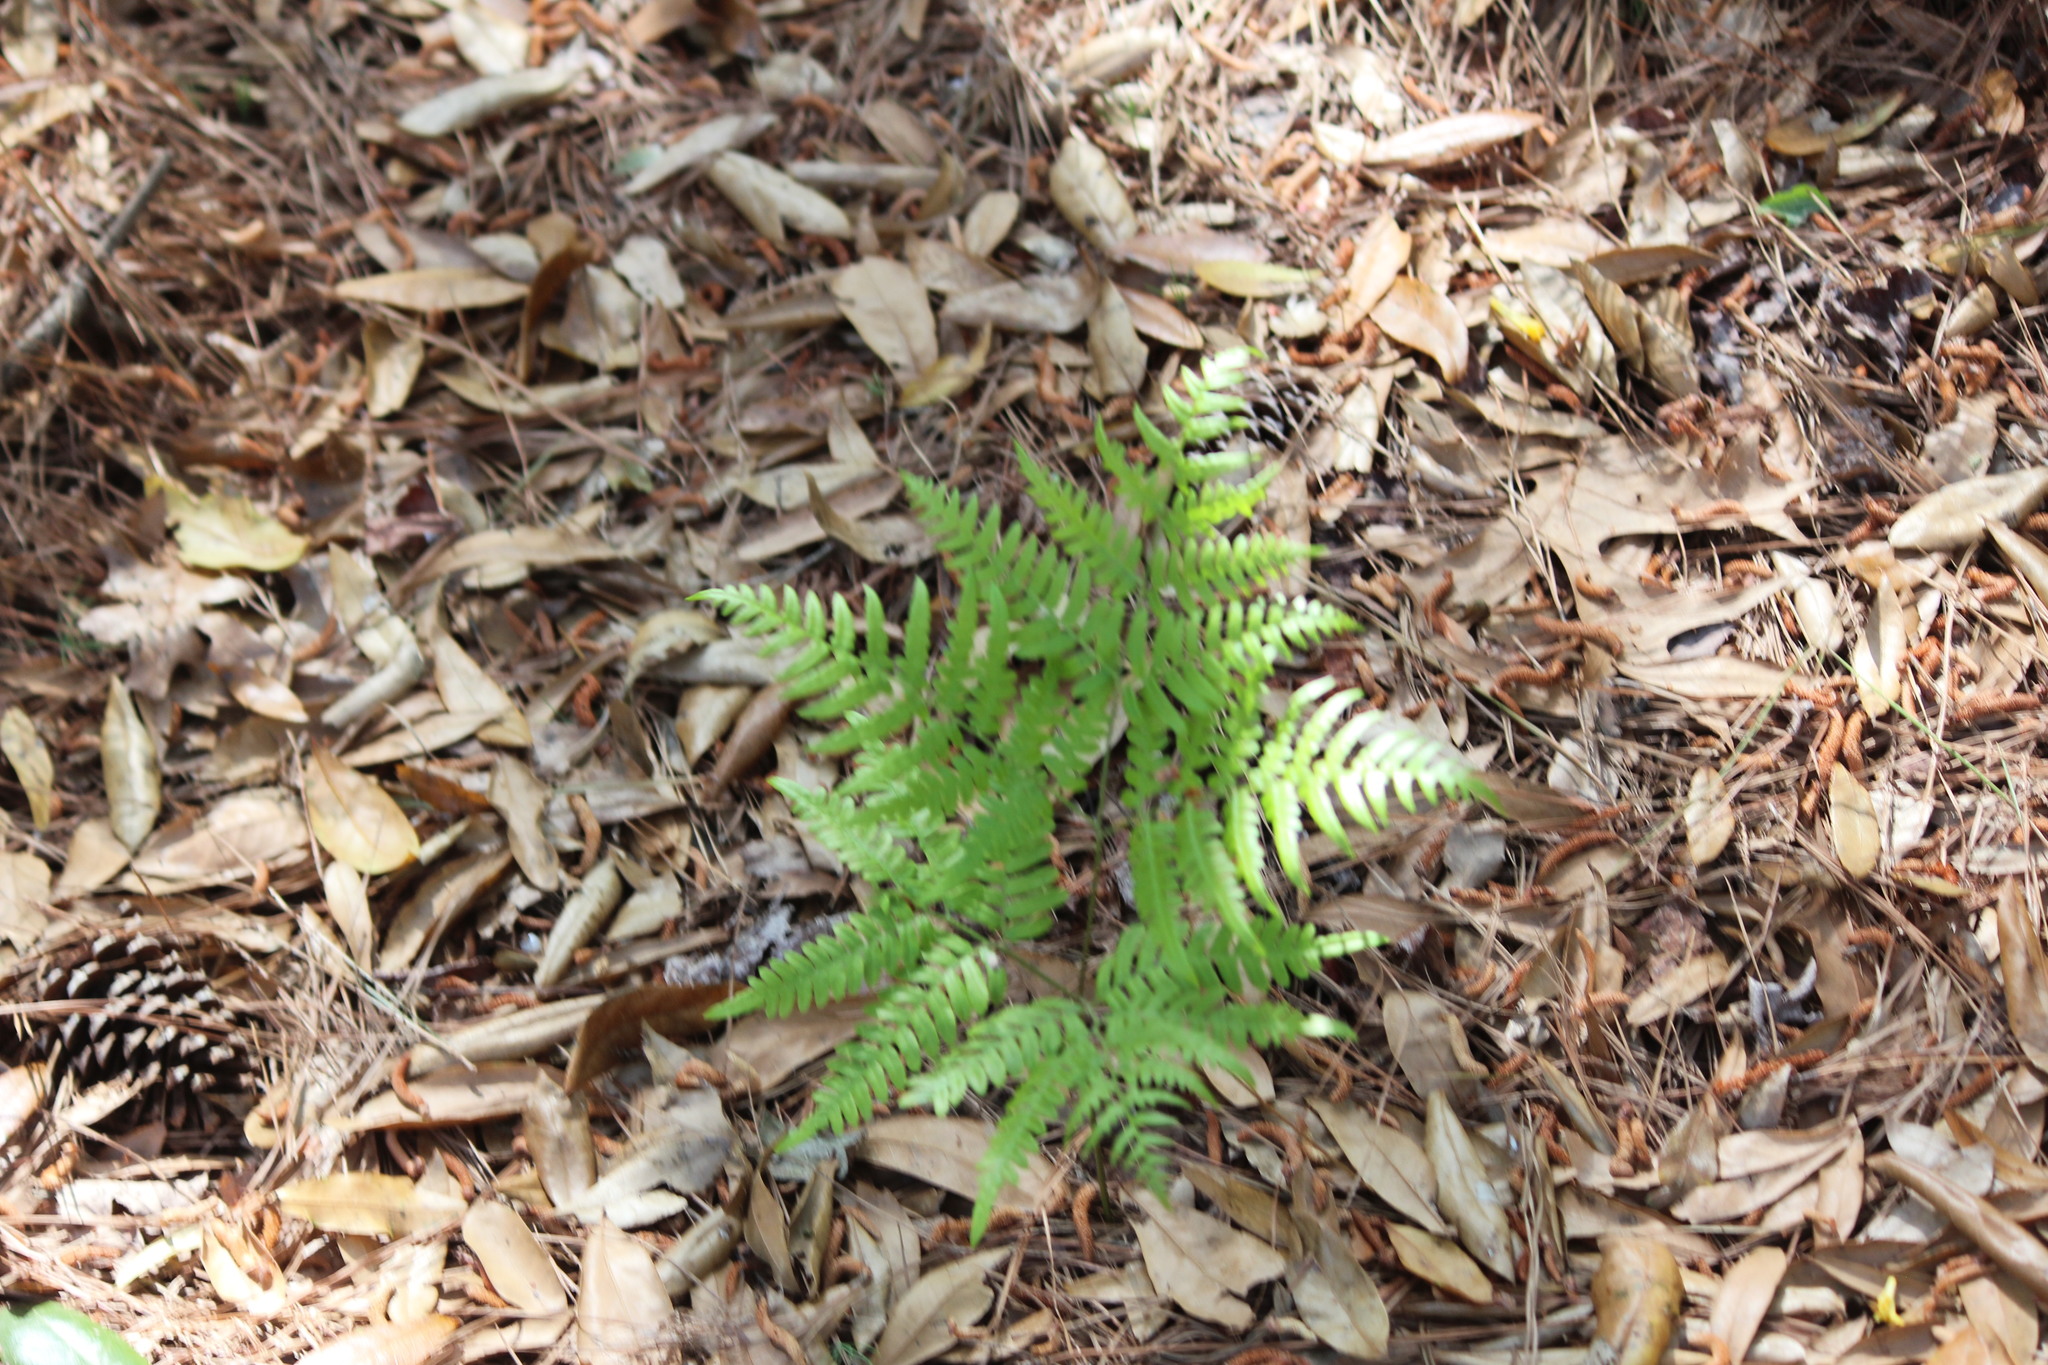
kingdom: Plantae
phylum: Tracheophyta
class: Polypodiopsida
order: Polypodiales
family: Dennstaedtiaceae
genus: Pteridium
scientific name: Pteridium aquilinum
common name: Bracken
